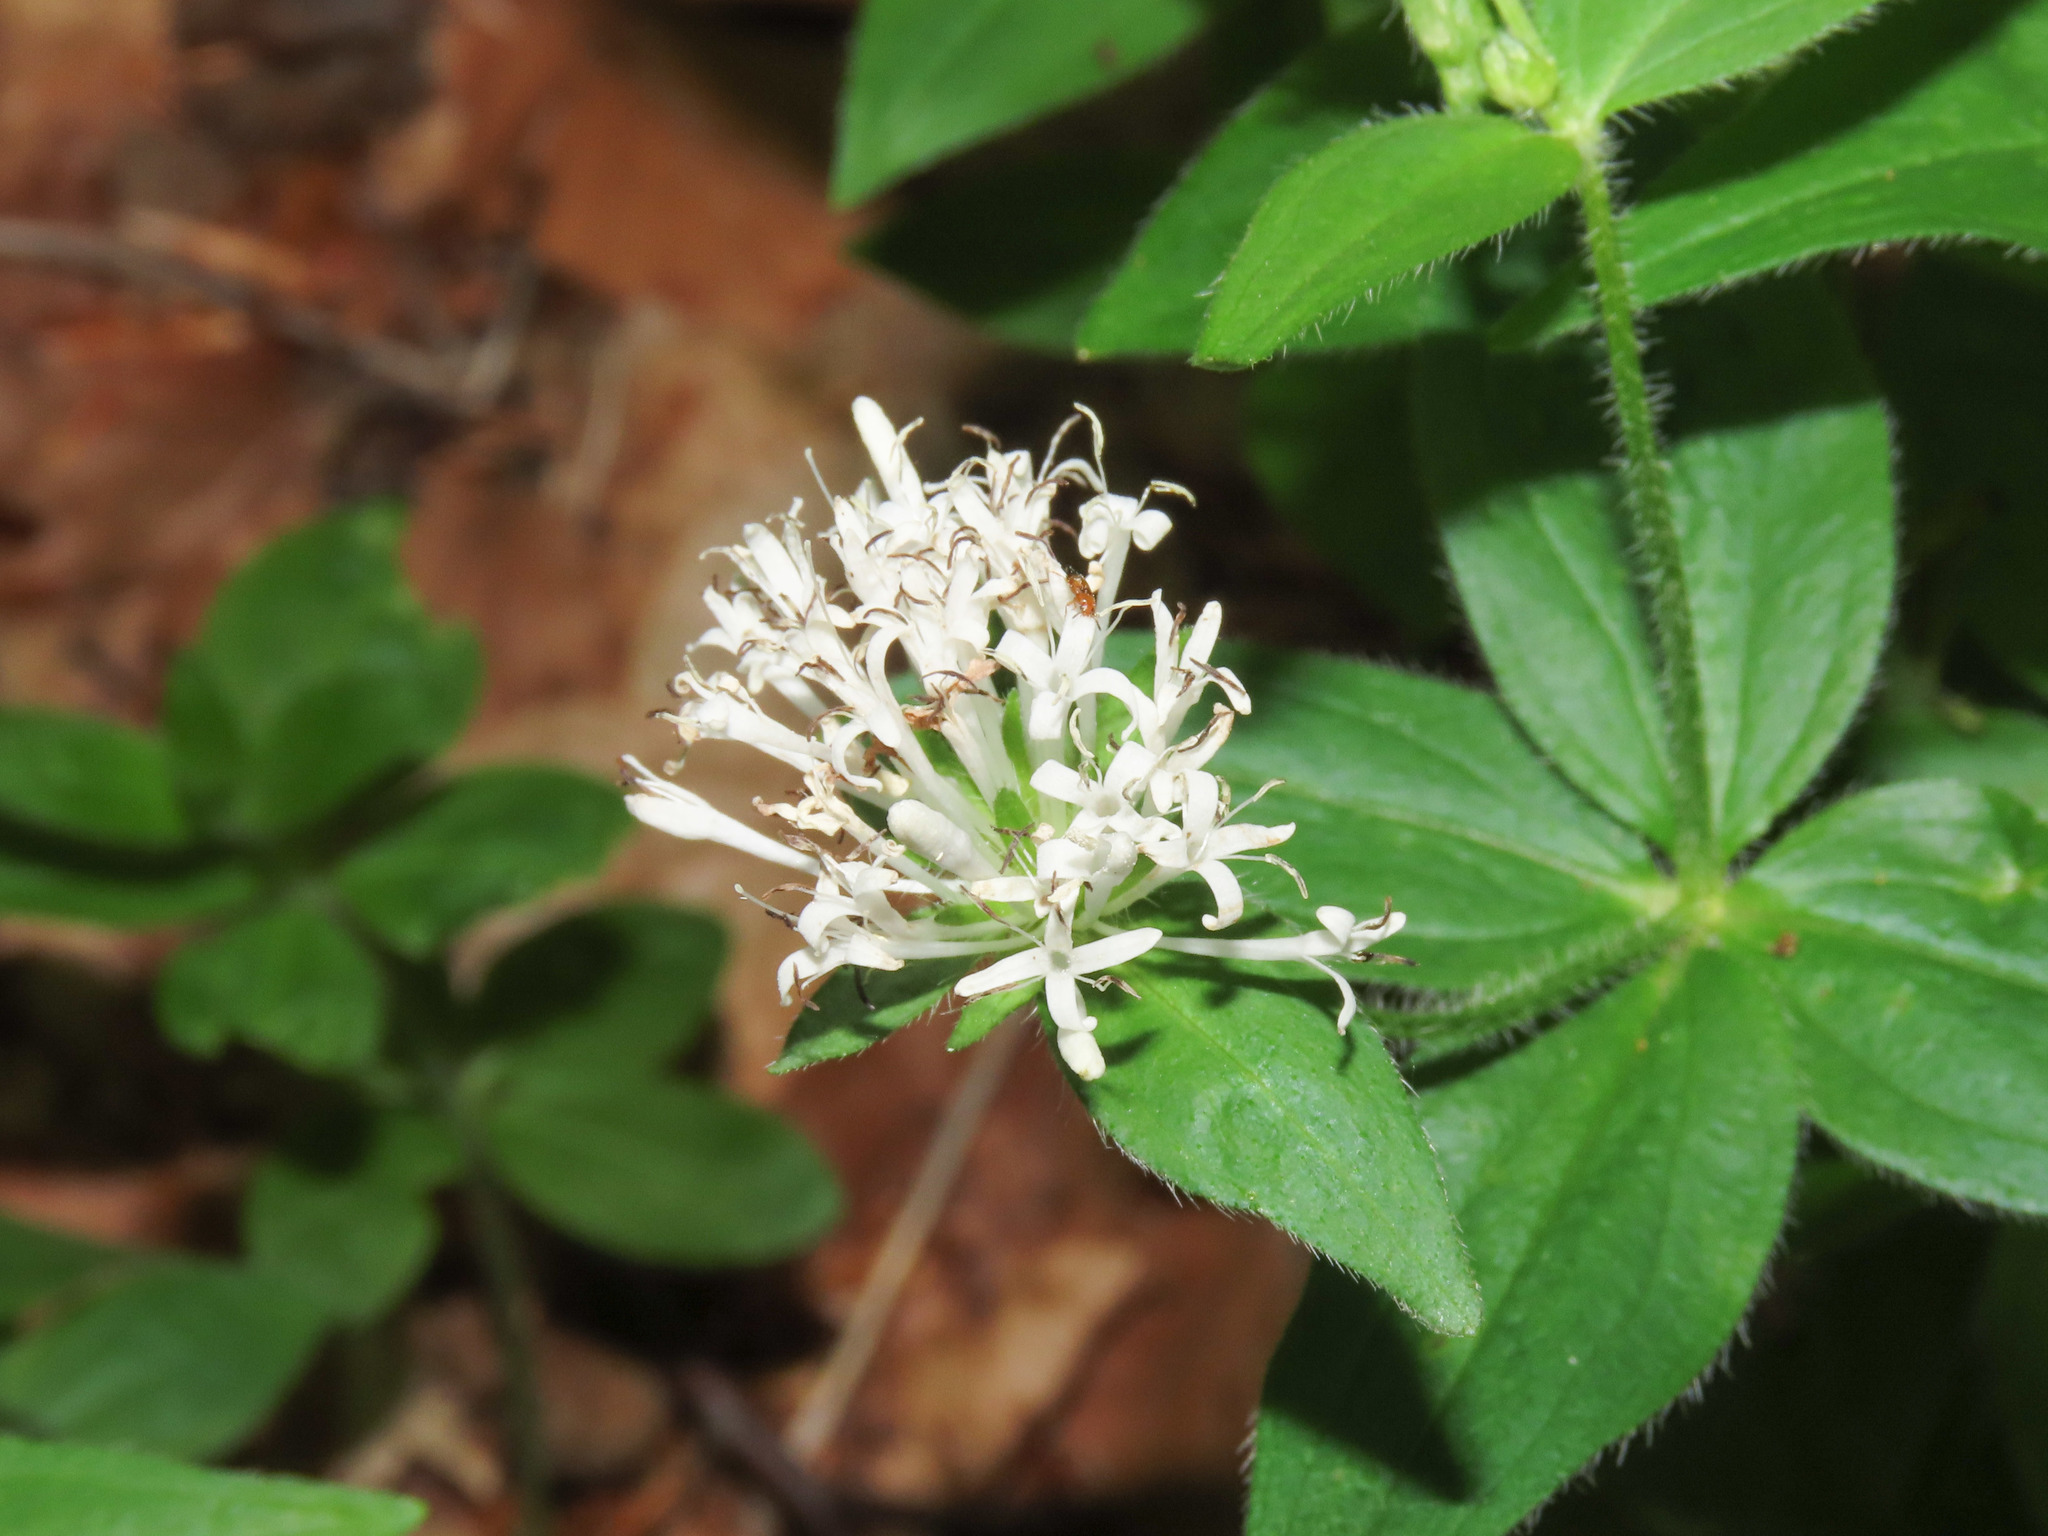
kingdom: Plantae
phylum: Tracheophyta
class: Magnoliopsida
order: Gentianales
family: Rubiaceae
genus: Asperula
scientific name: Asperula taurina
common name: Pink woodruff
